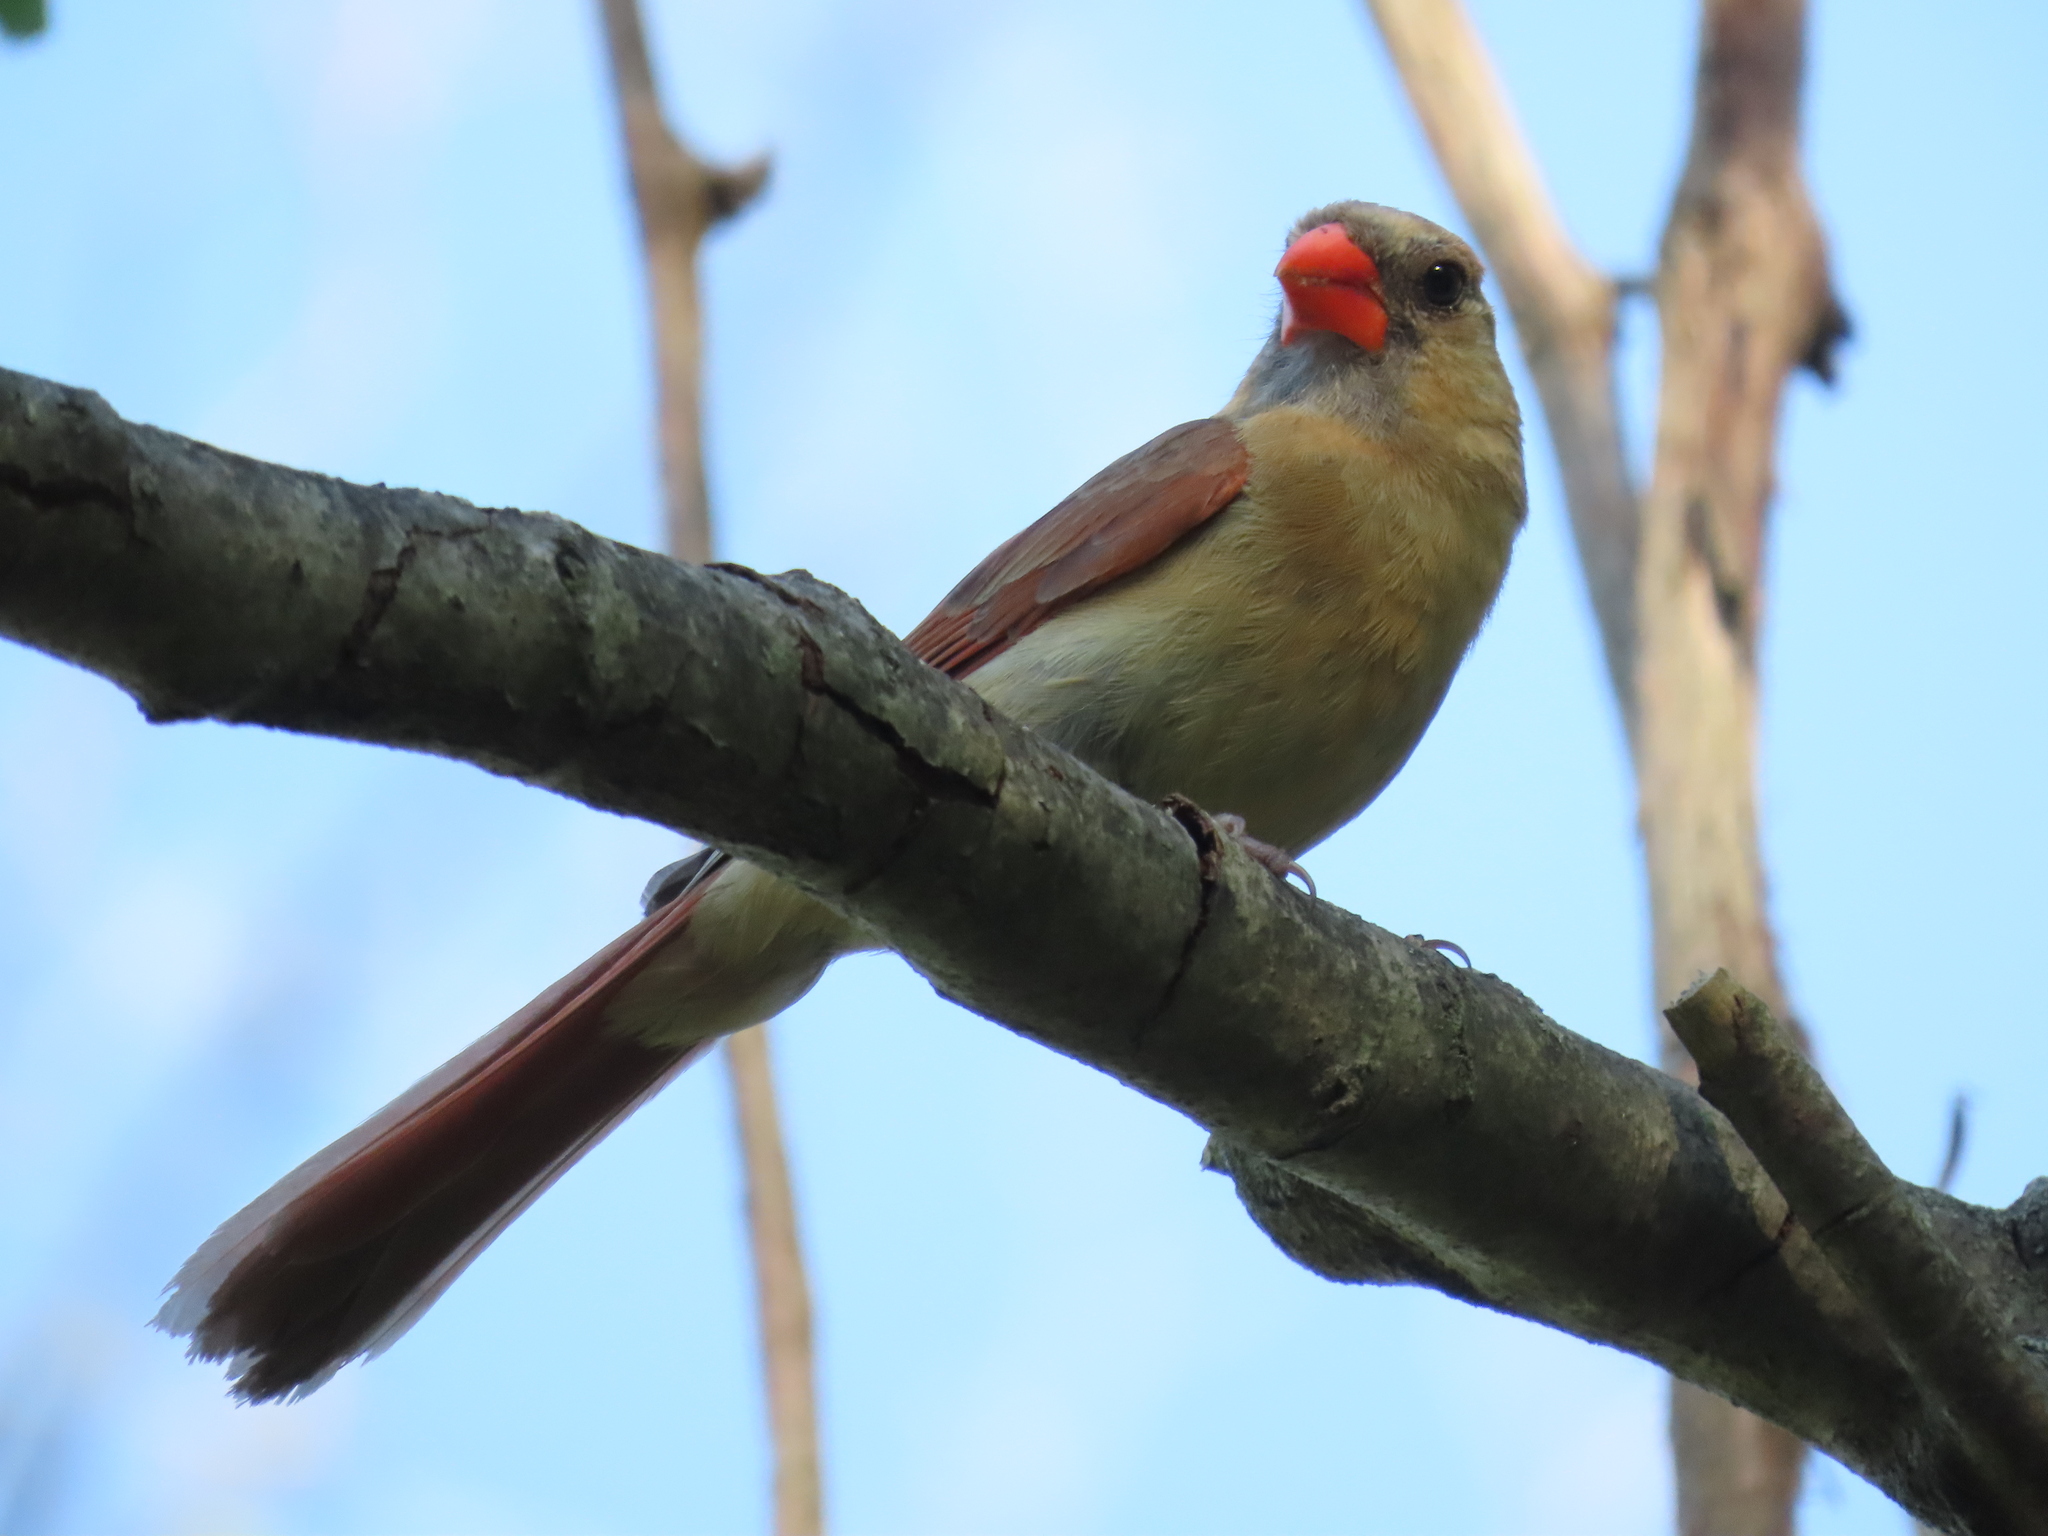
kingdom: Animalia
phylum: Chordata
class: Aves
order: Passeriformes
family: Cardinalidae
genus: Cardinalis
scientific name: Cardinalis cardinalis
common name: Northern cardinal
